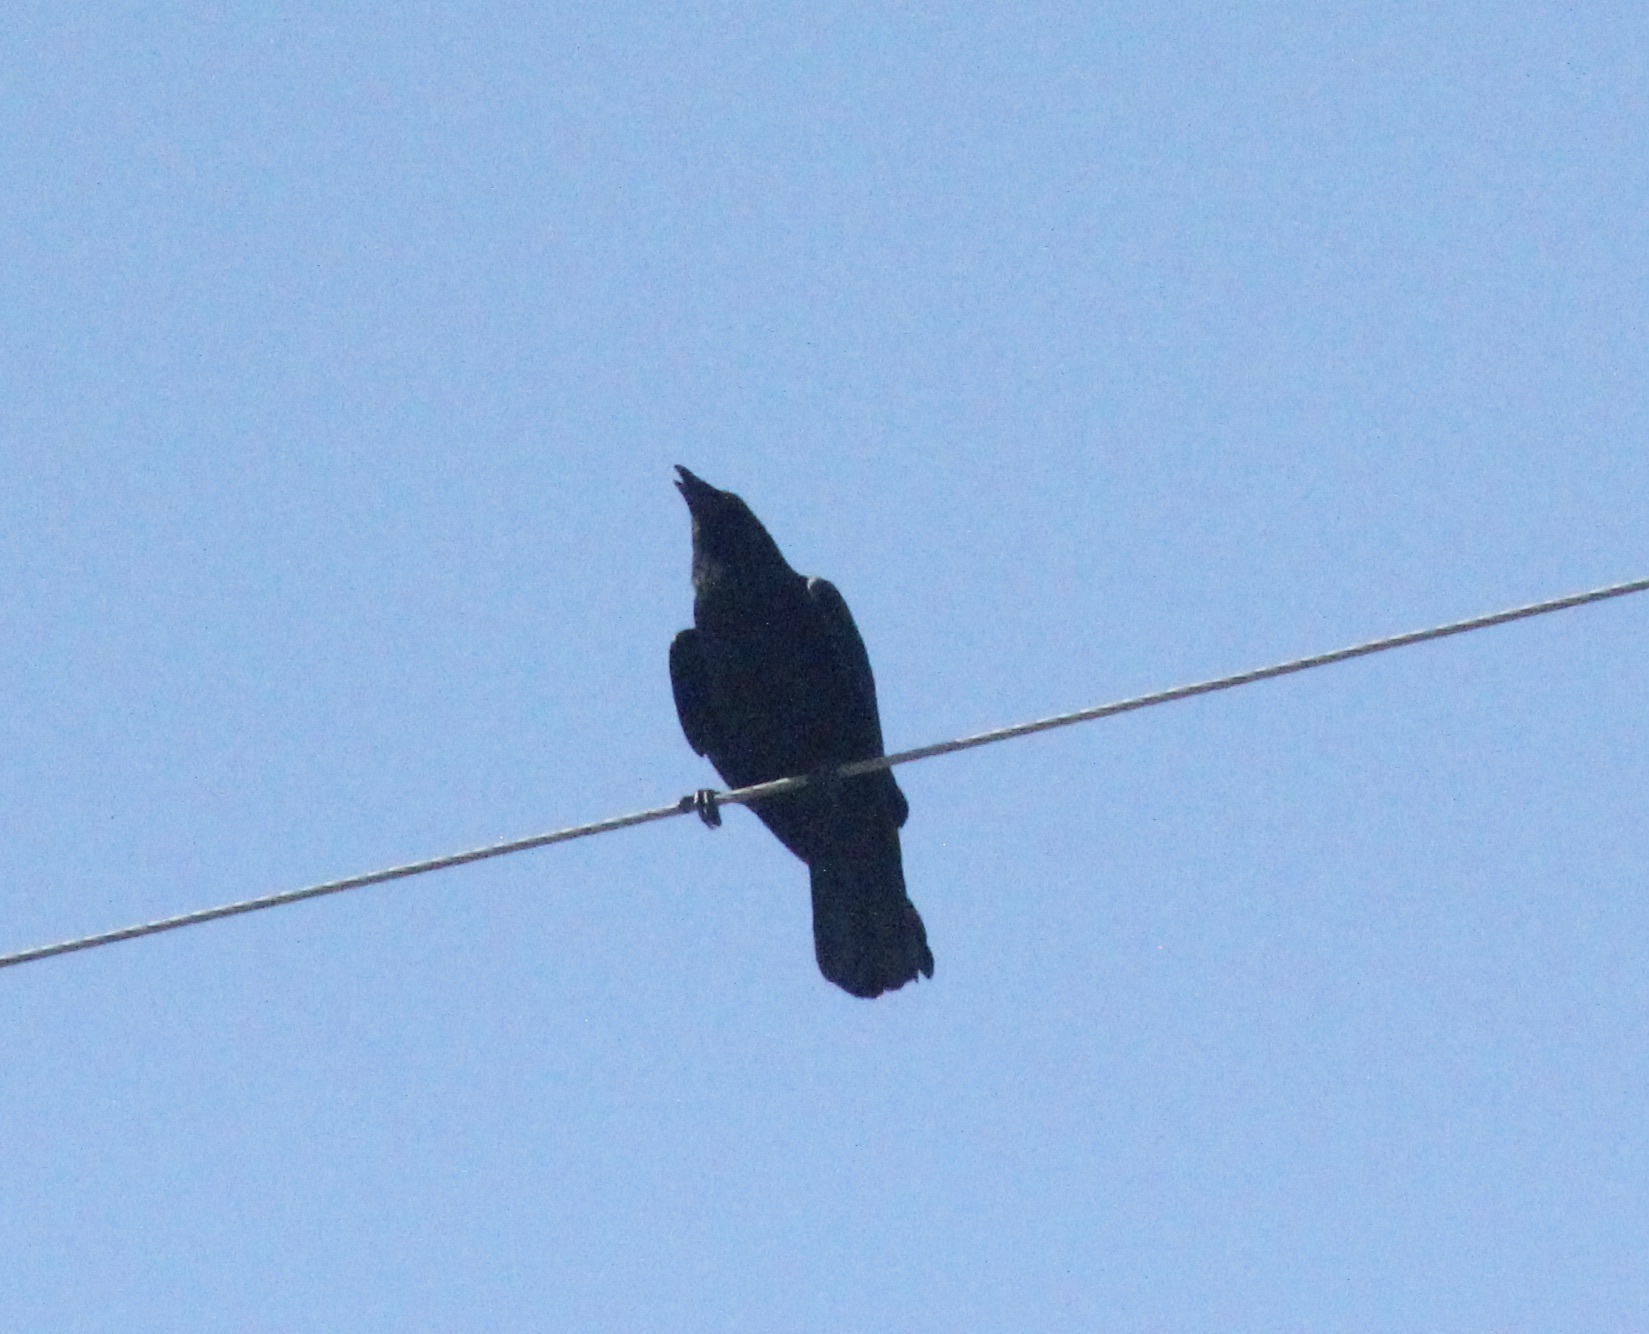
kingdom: Animalia
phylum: Chordata
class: Aves
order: Passeriformes
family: Corvidae
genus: Corvus
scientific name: Corvus brachyrhynchos
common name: American crow
